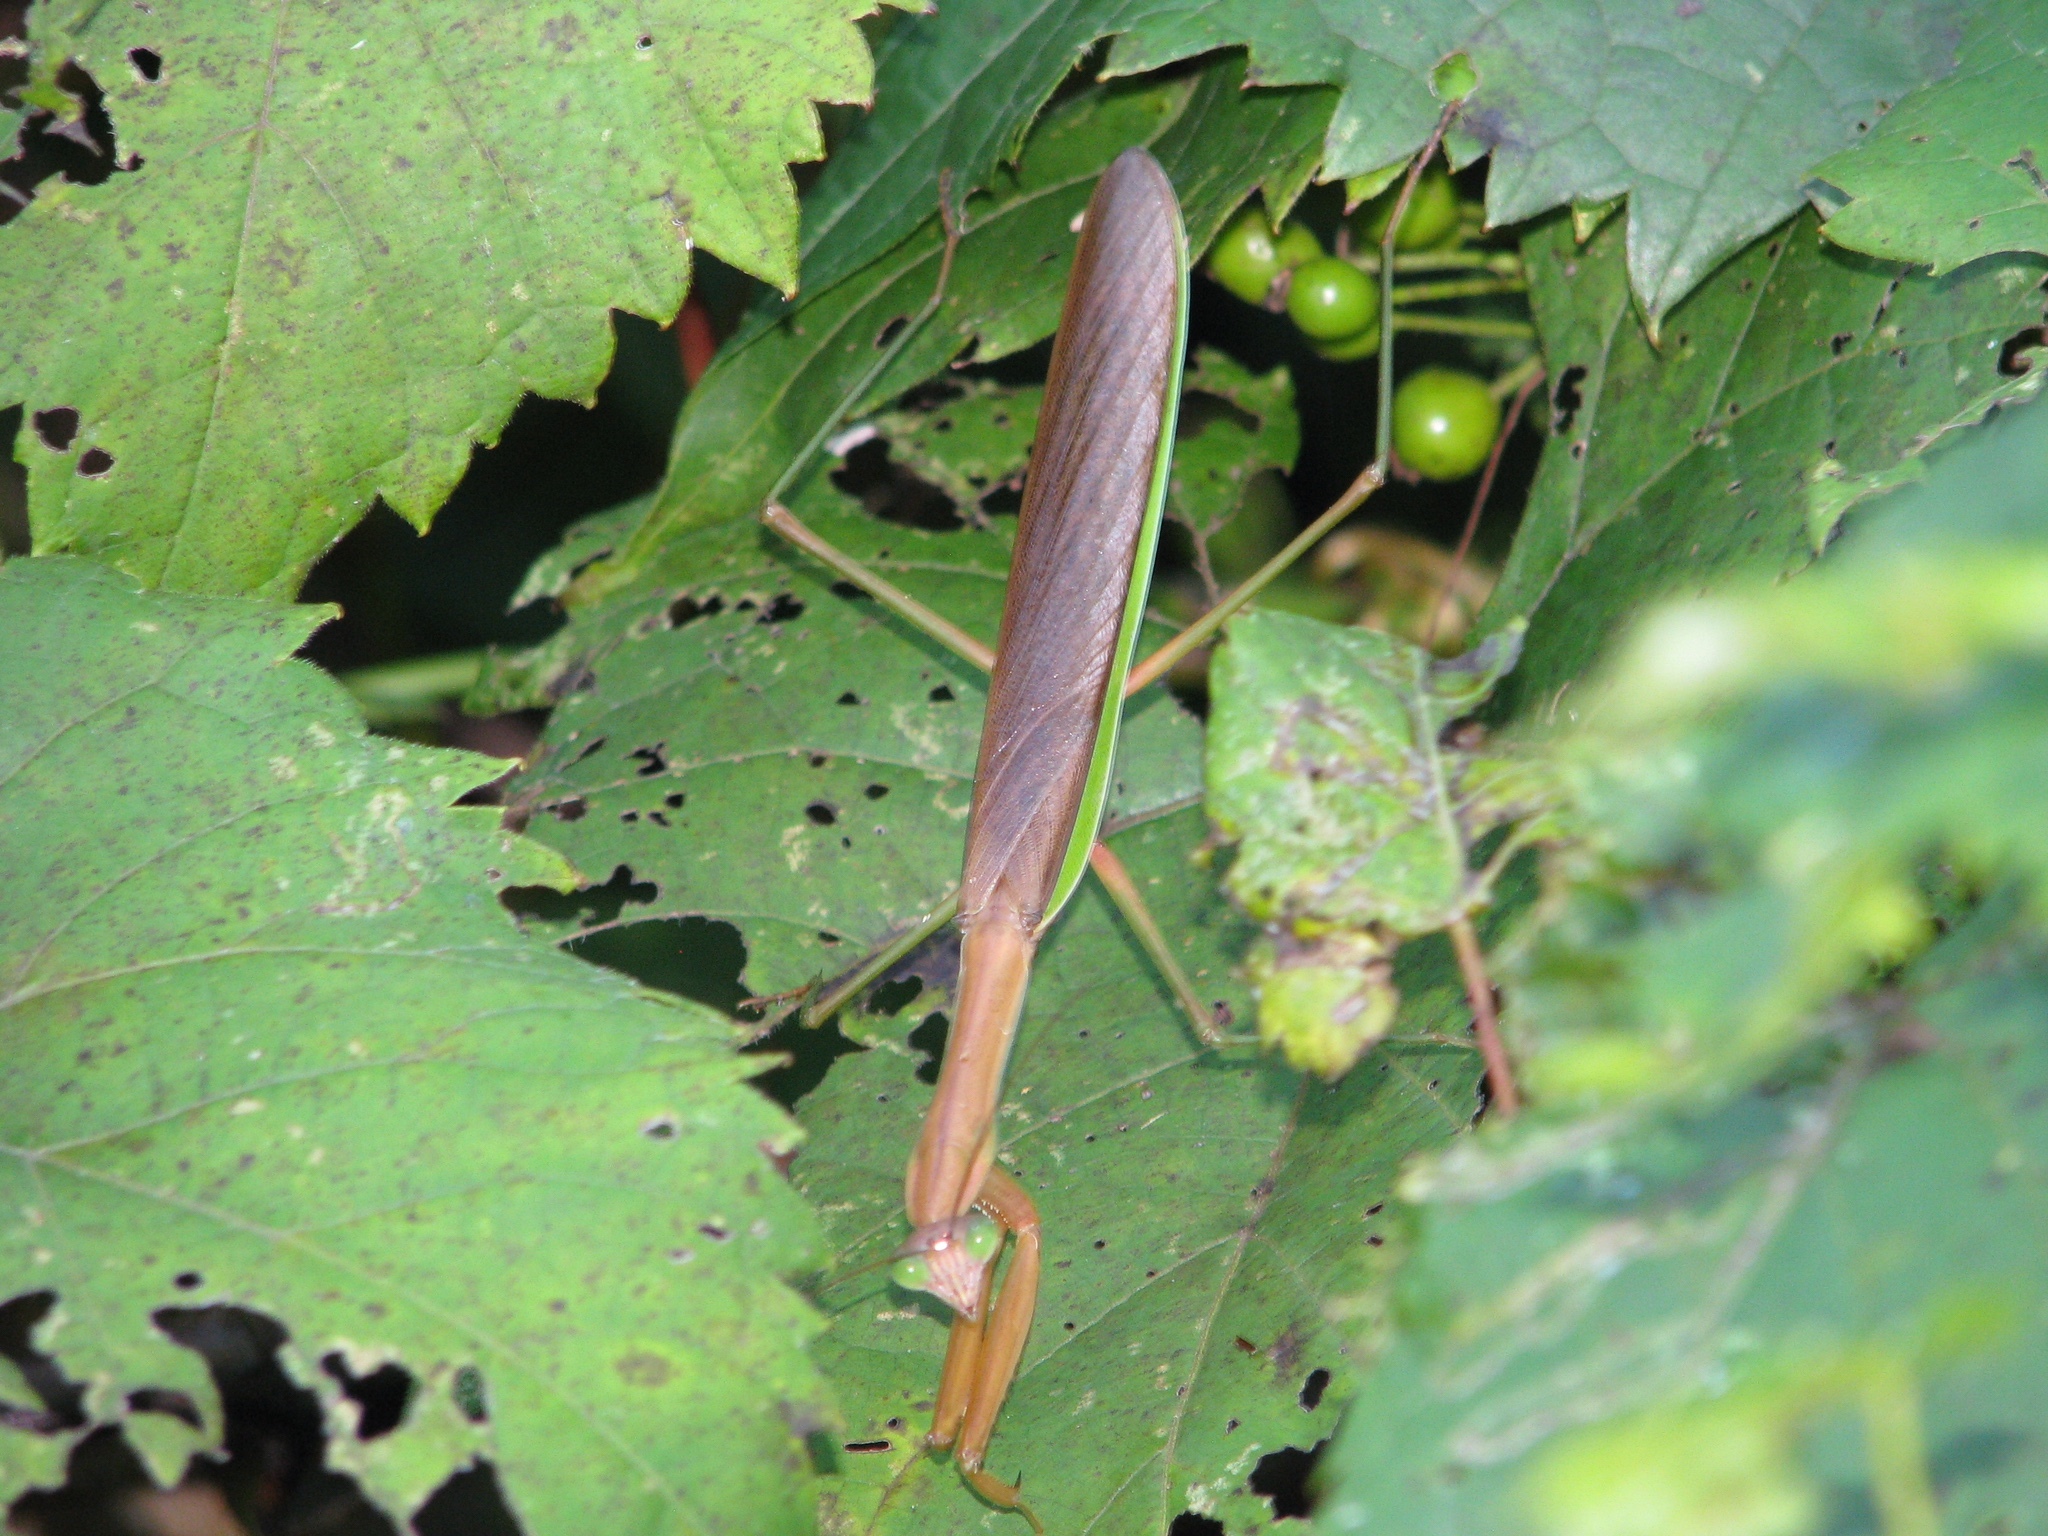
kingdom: Animalia
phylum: Arthropoda
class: Insecta
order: Mantodea
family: Mantidae
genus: Tenodera
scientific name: Tenodera sinensis
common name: Chinese mantis
